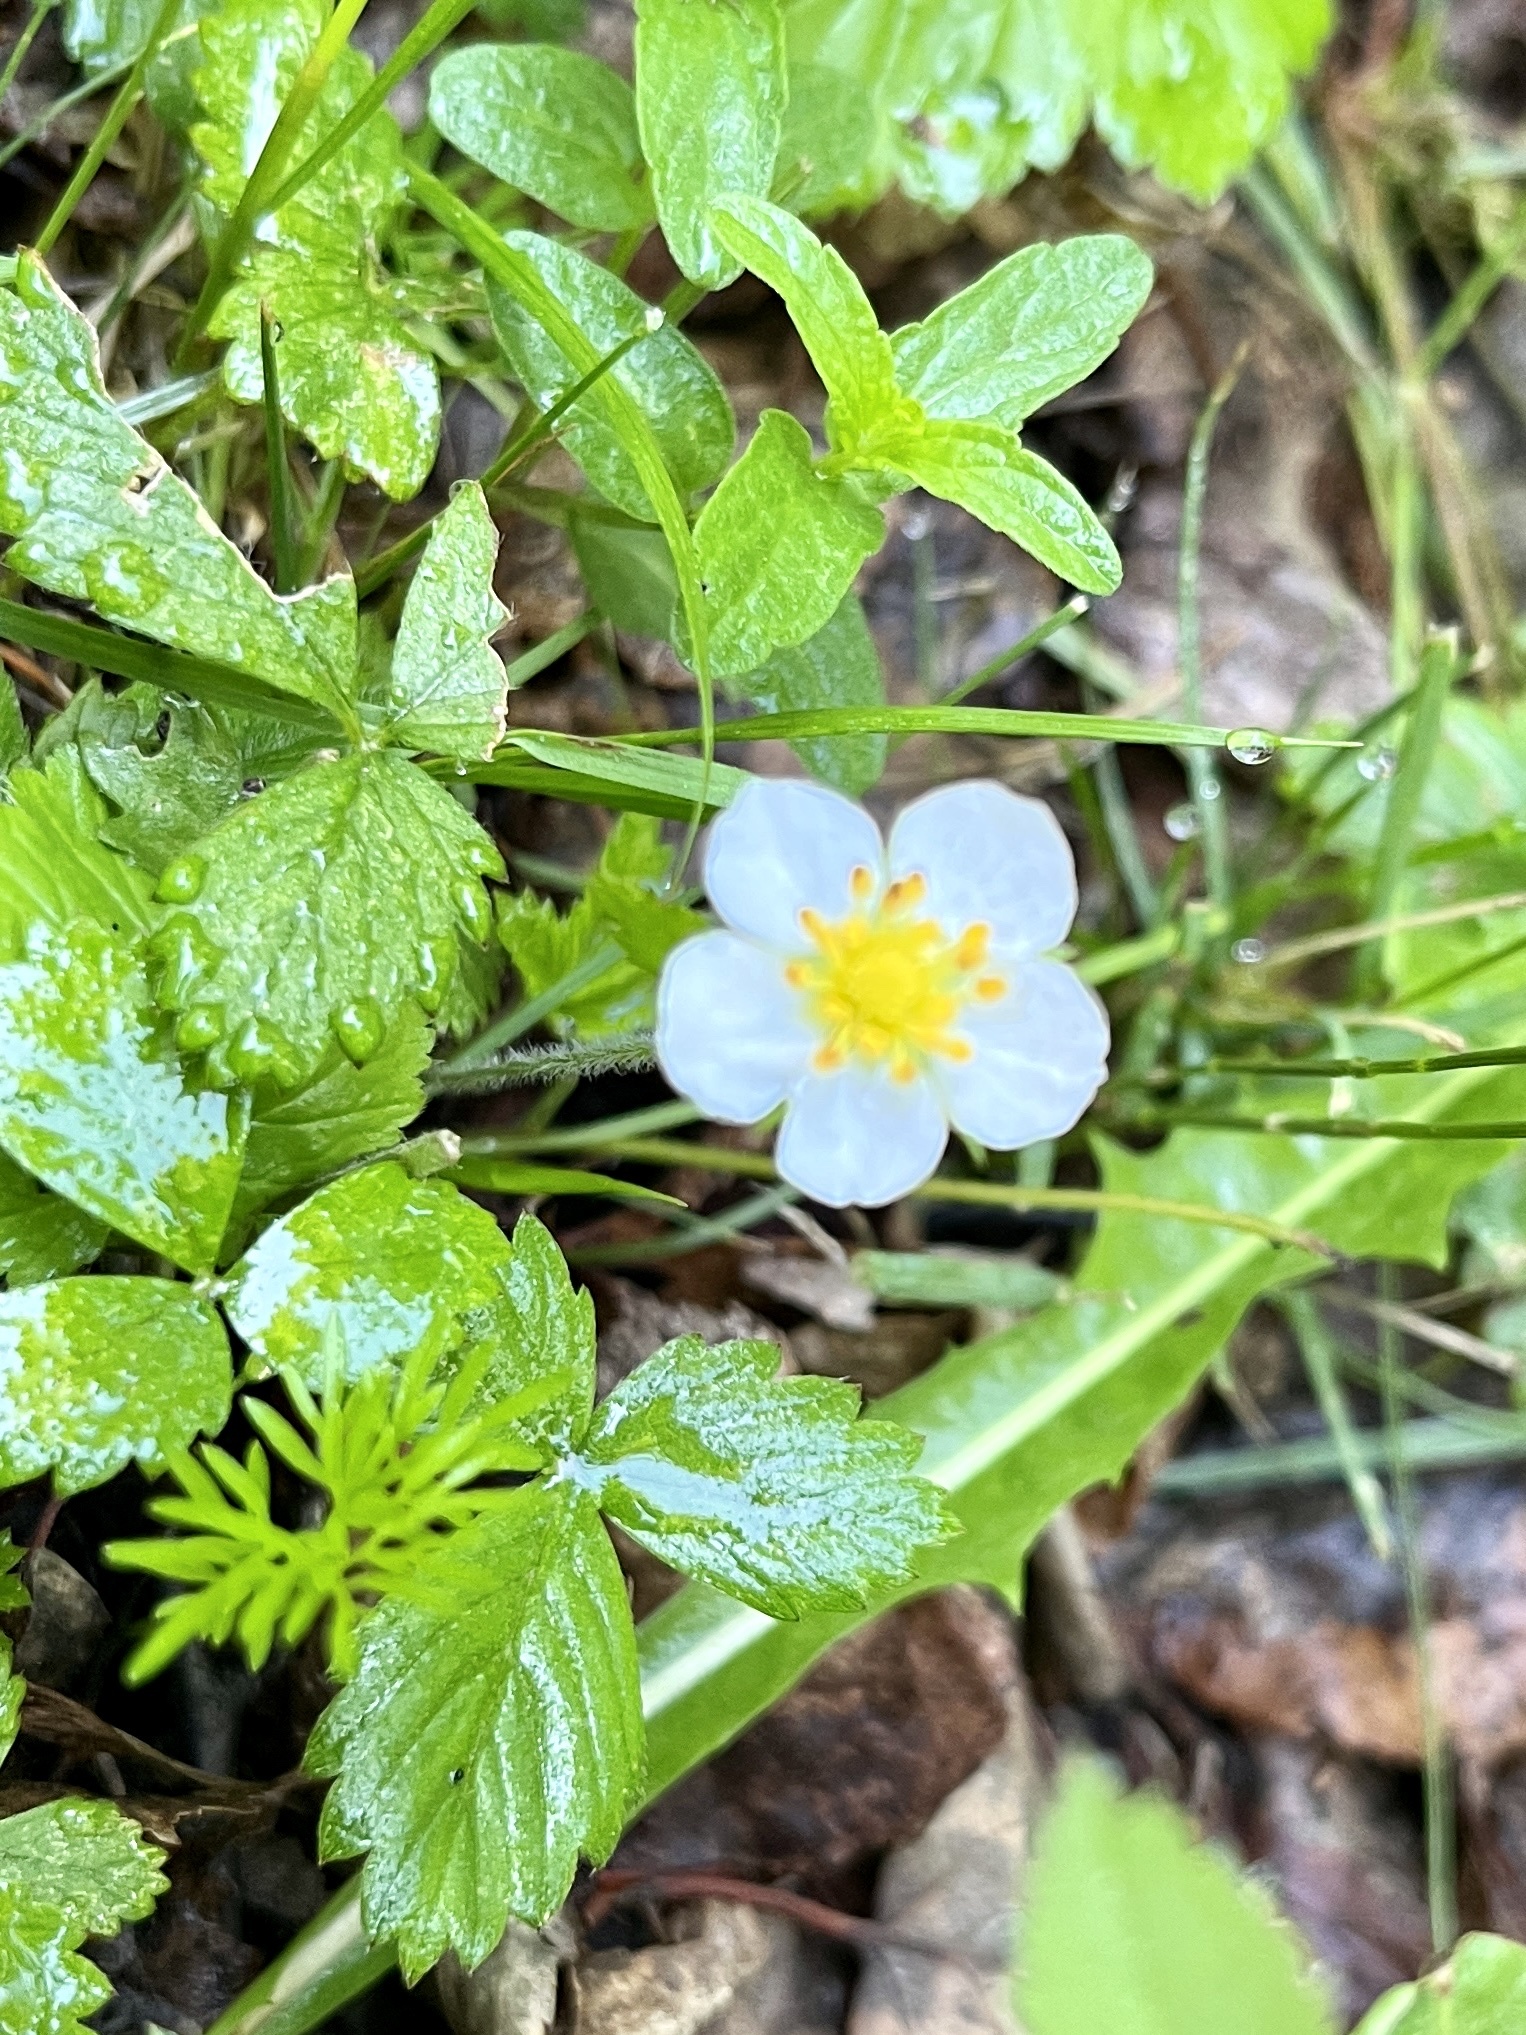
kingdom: Plantae
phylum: Tracheophyta
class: Magnoliopsida
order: Rosales
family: Rosaceae
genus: Fragaria
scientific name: Fragaria orientalis
